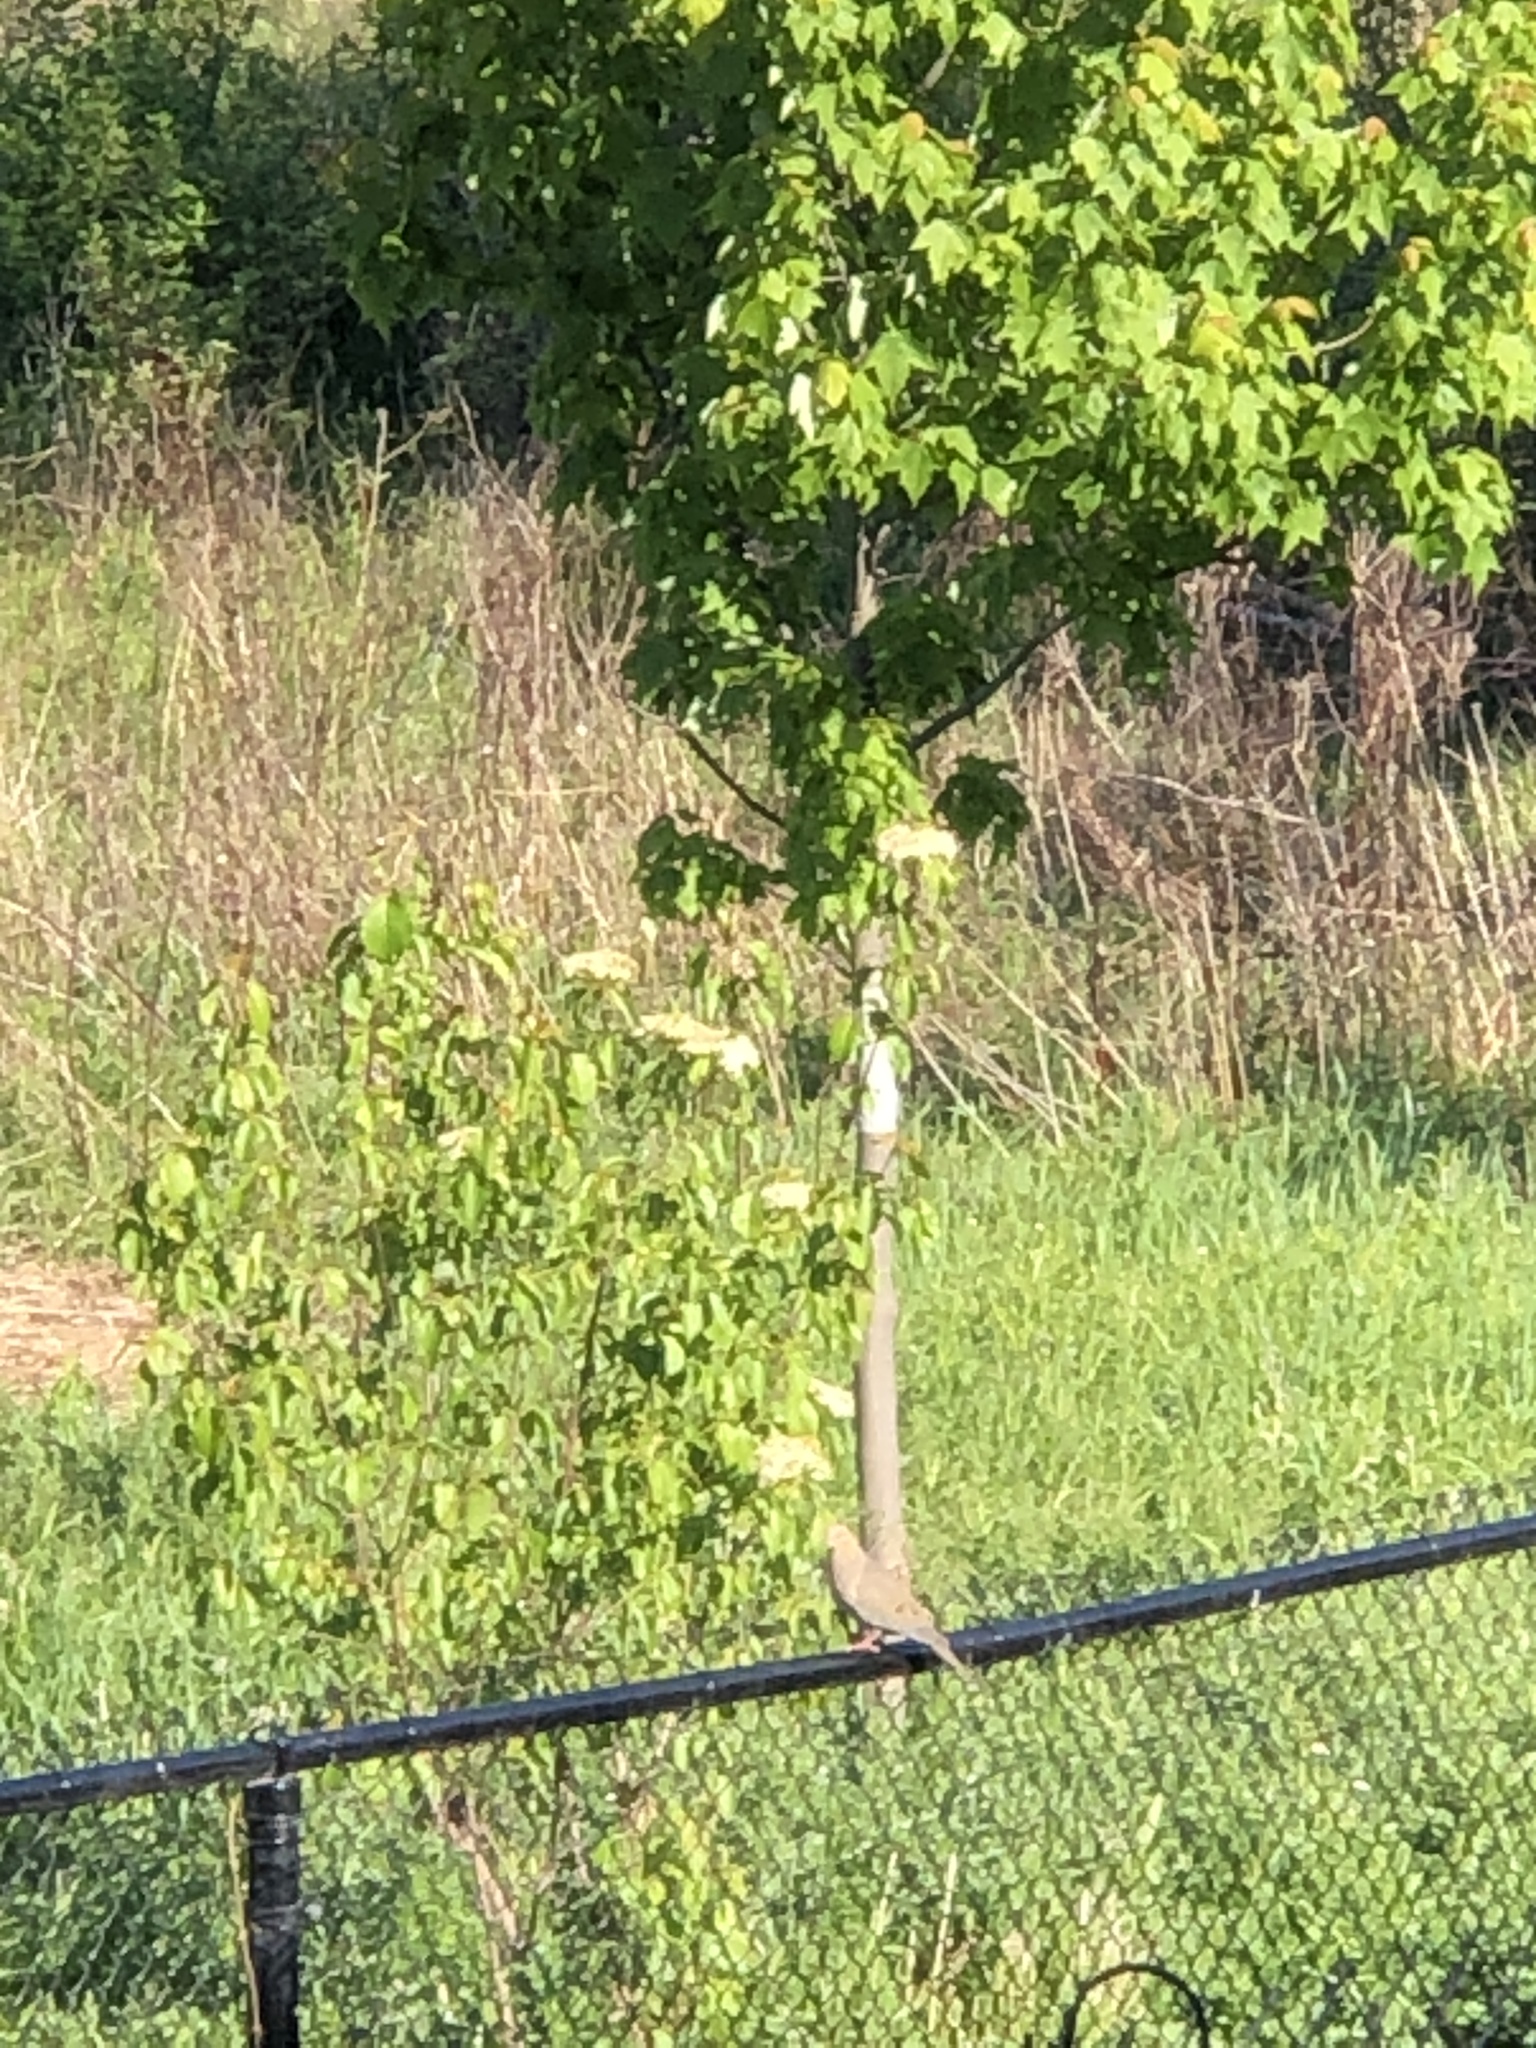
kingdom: Animalia
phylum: Chordata
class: Aves
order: Columbiformes
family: Columbidae
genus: Zenaida
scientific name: Zenaida macroura
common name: Mourning dove
